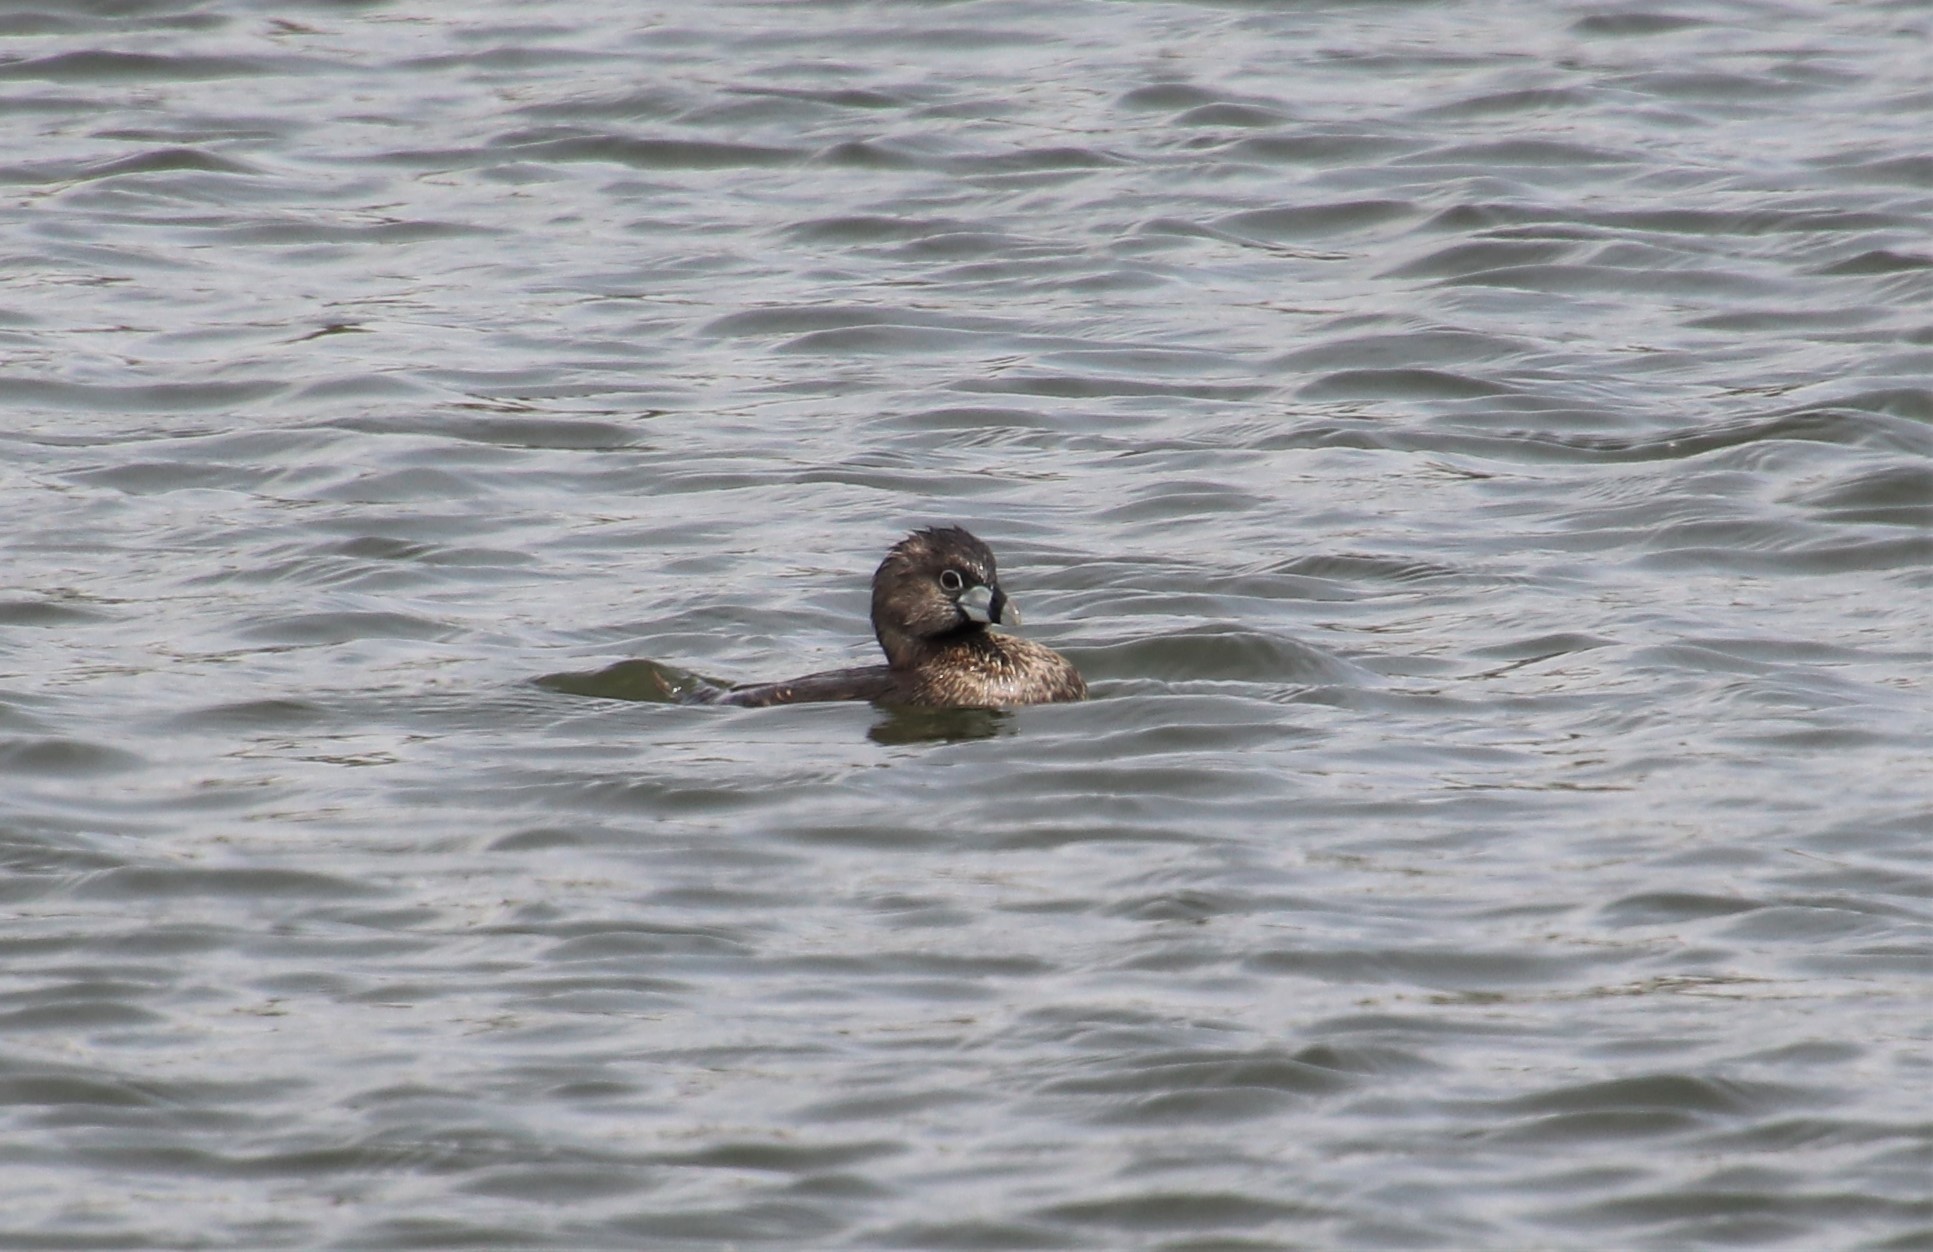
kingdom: Animalia
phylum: Chordata
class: Aves
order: Podicipediformes
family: Podicipedidae
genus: Podilymbus
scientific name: Podilymbus podiceps
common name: Pied-billed grebe
